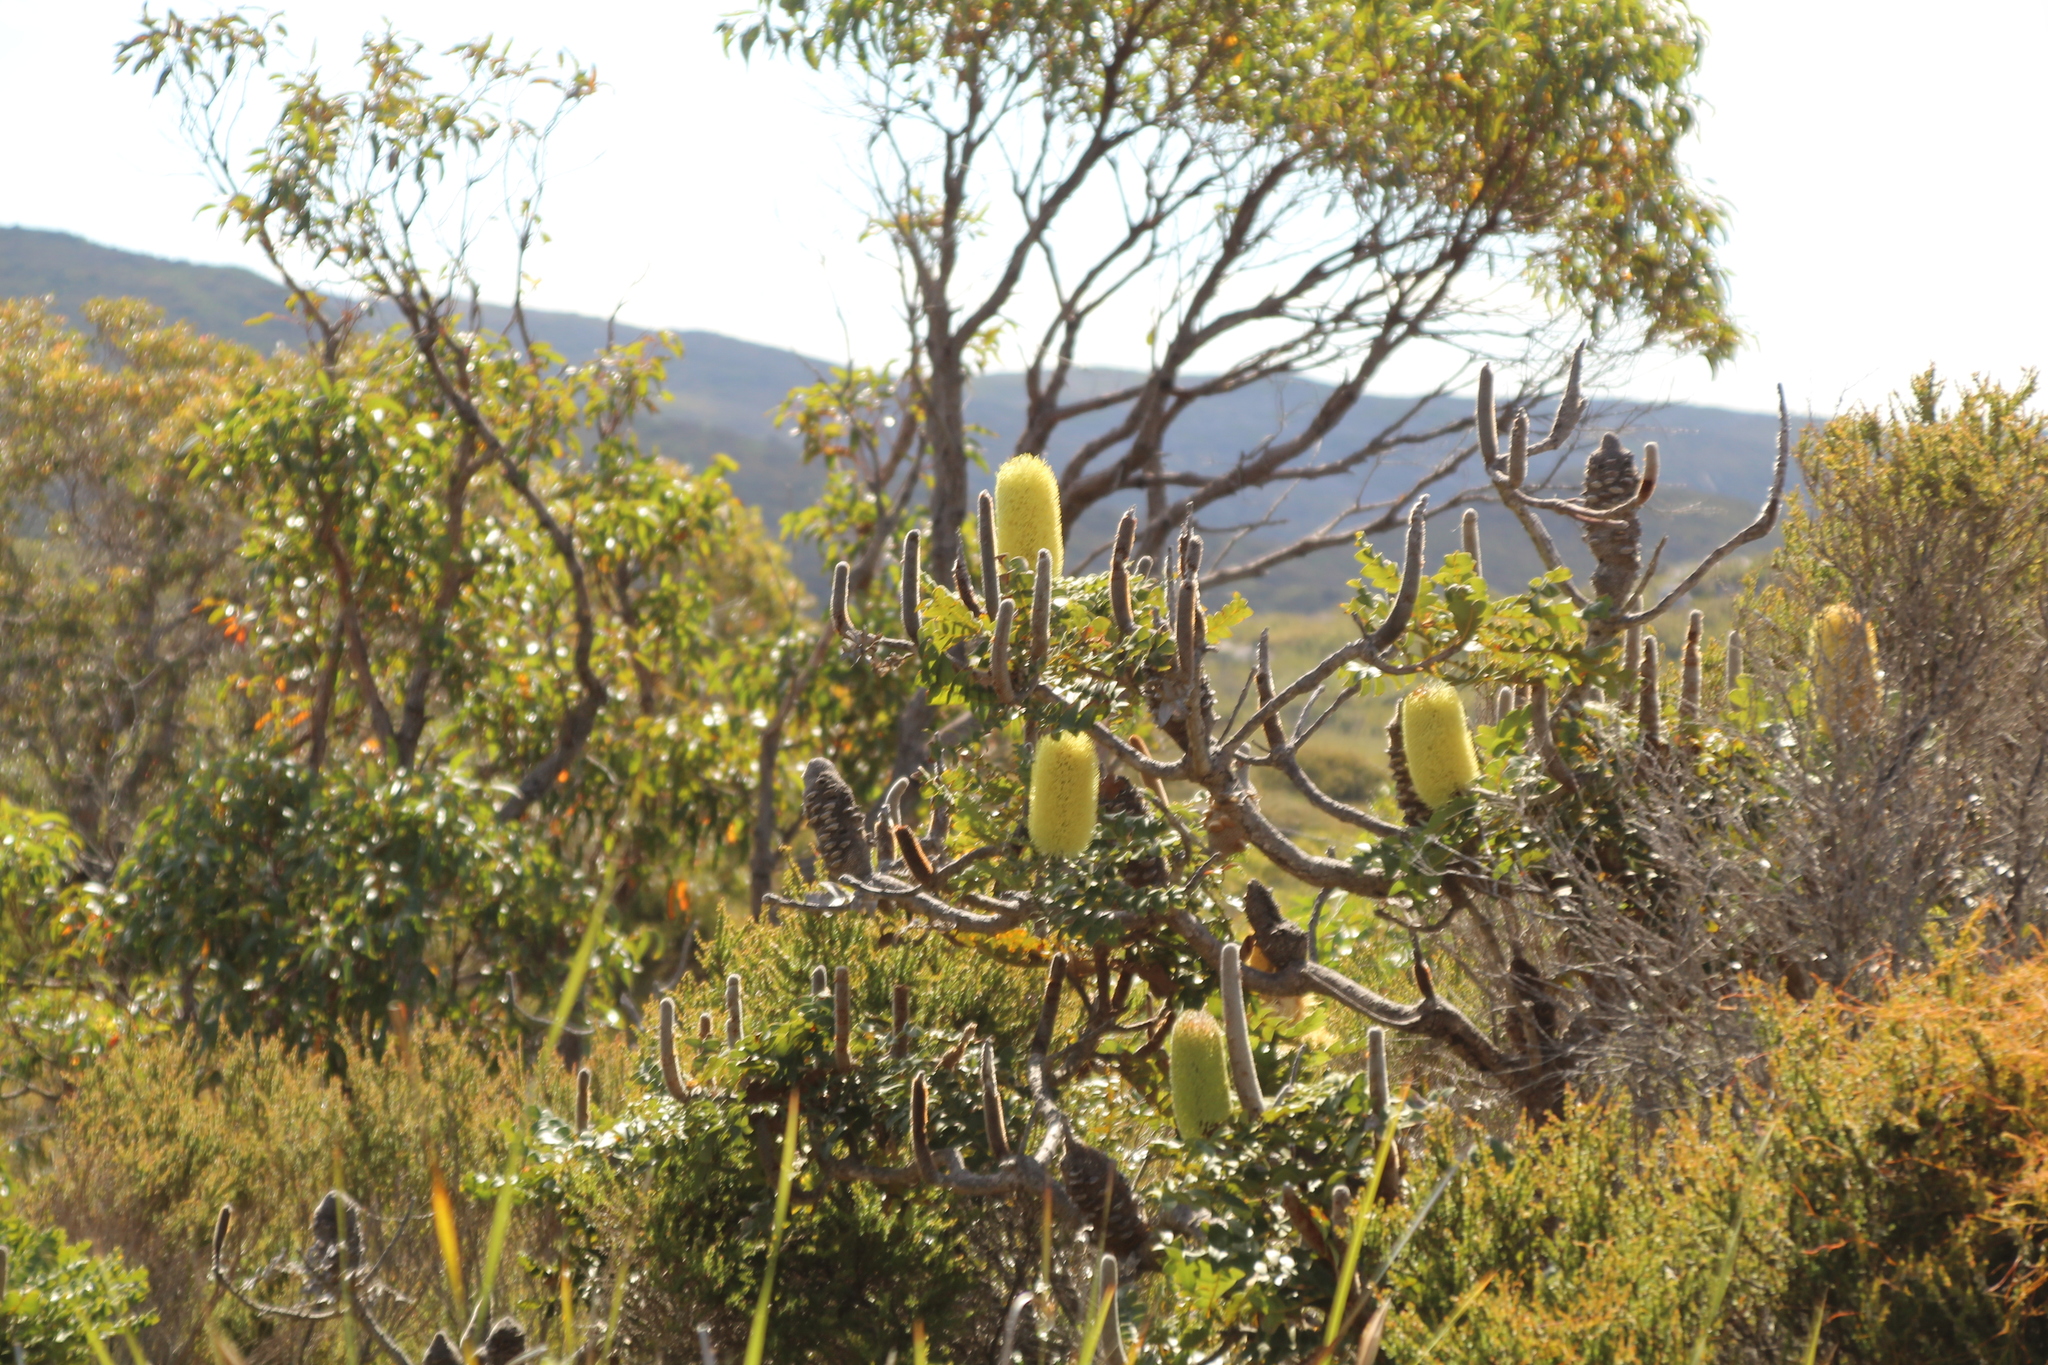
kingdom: Plantae
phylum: Tracheophyta
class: Magnoliopsida
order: Proteales
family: Proteaceae
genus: Banksia
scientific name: Banksia grandis
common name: Giant banksia
